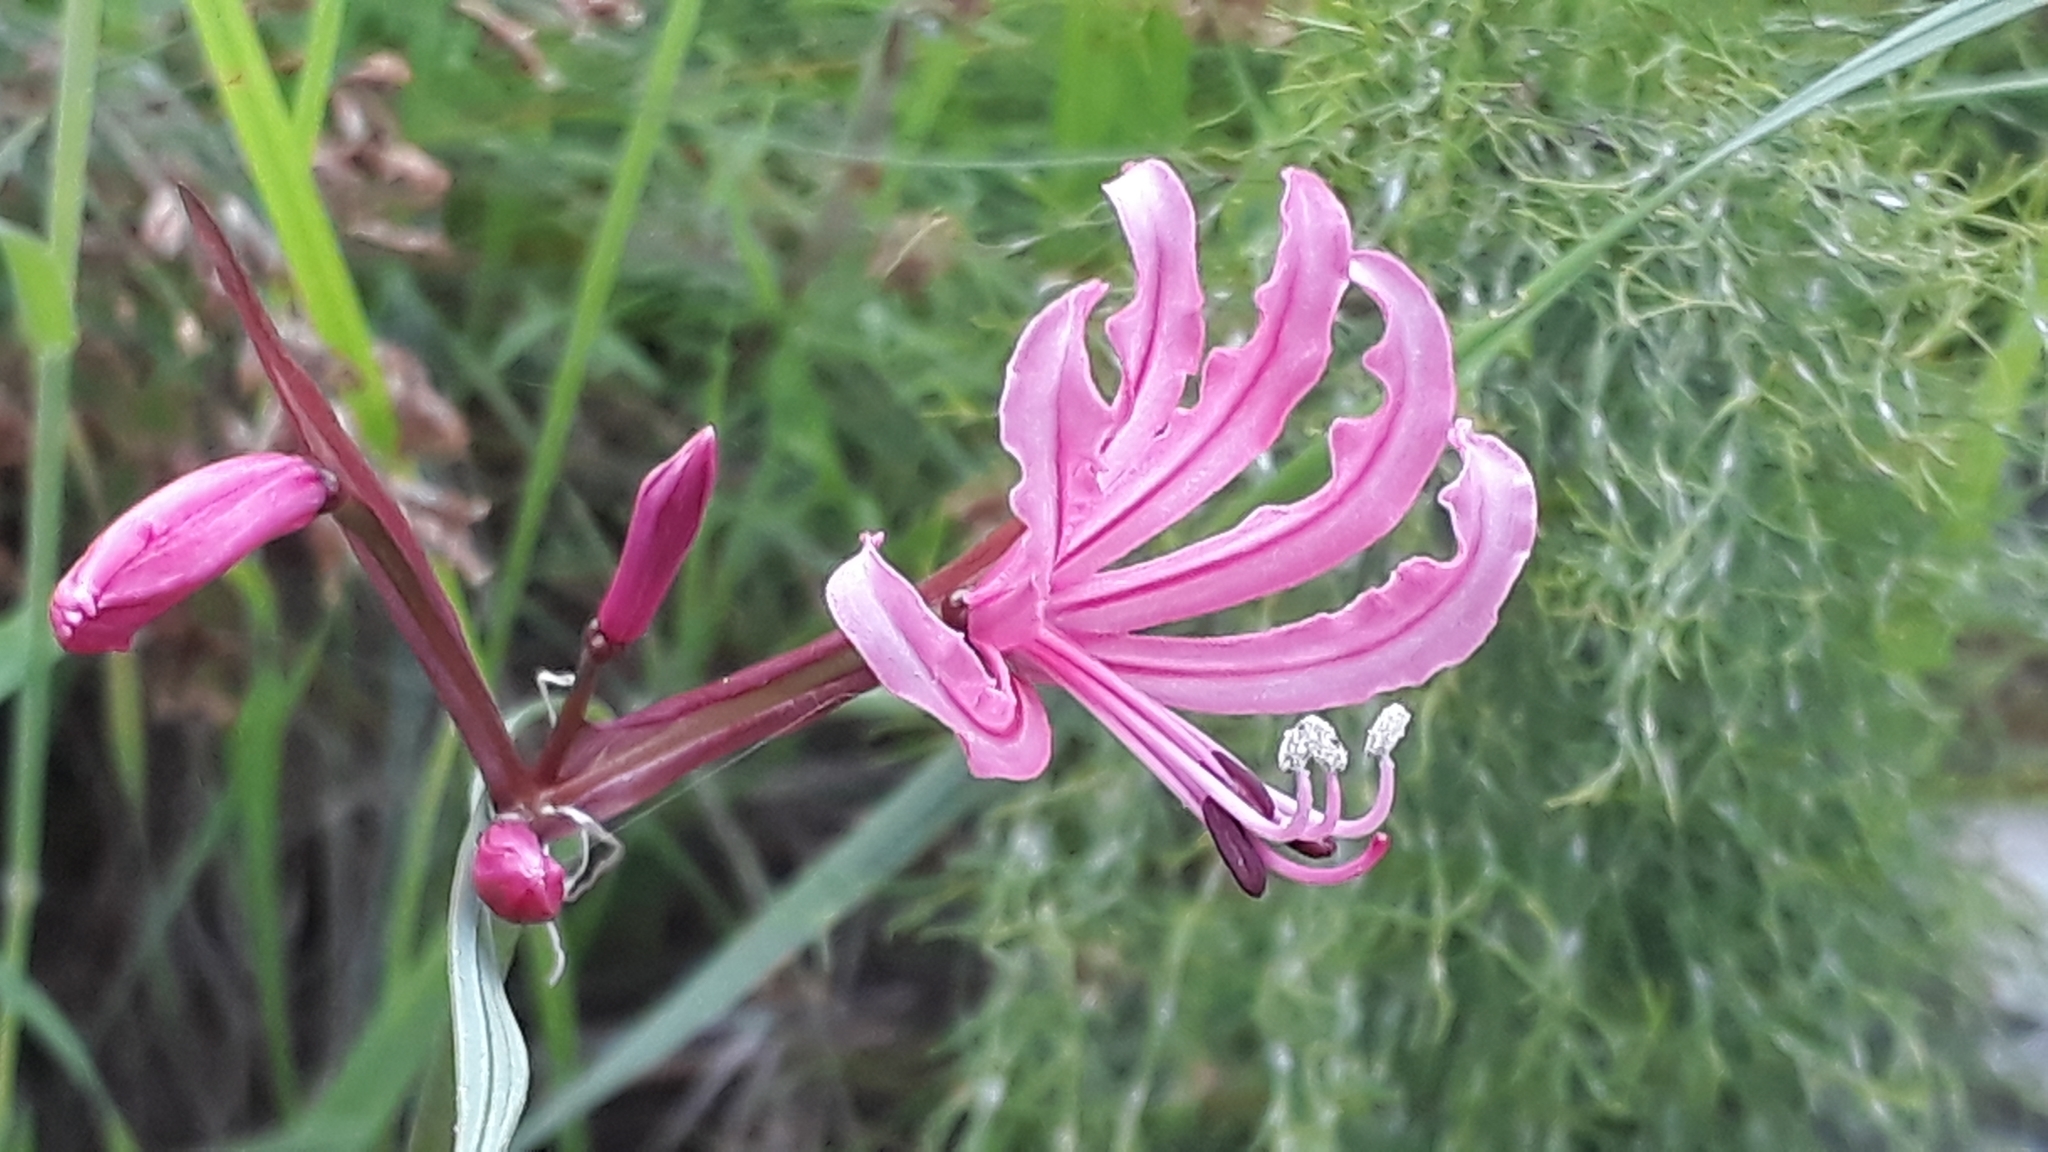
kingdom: Plantae
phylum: Tracheophyta
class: Liliopsida
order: Asparagales
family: Amaryllidaceae
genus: Nerine
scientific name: Nerine humilis
